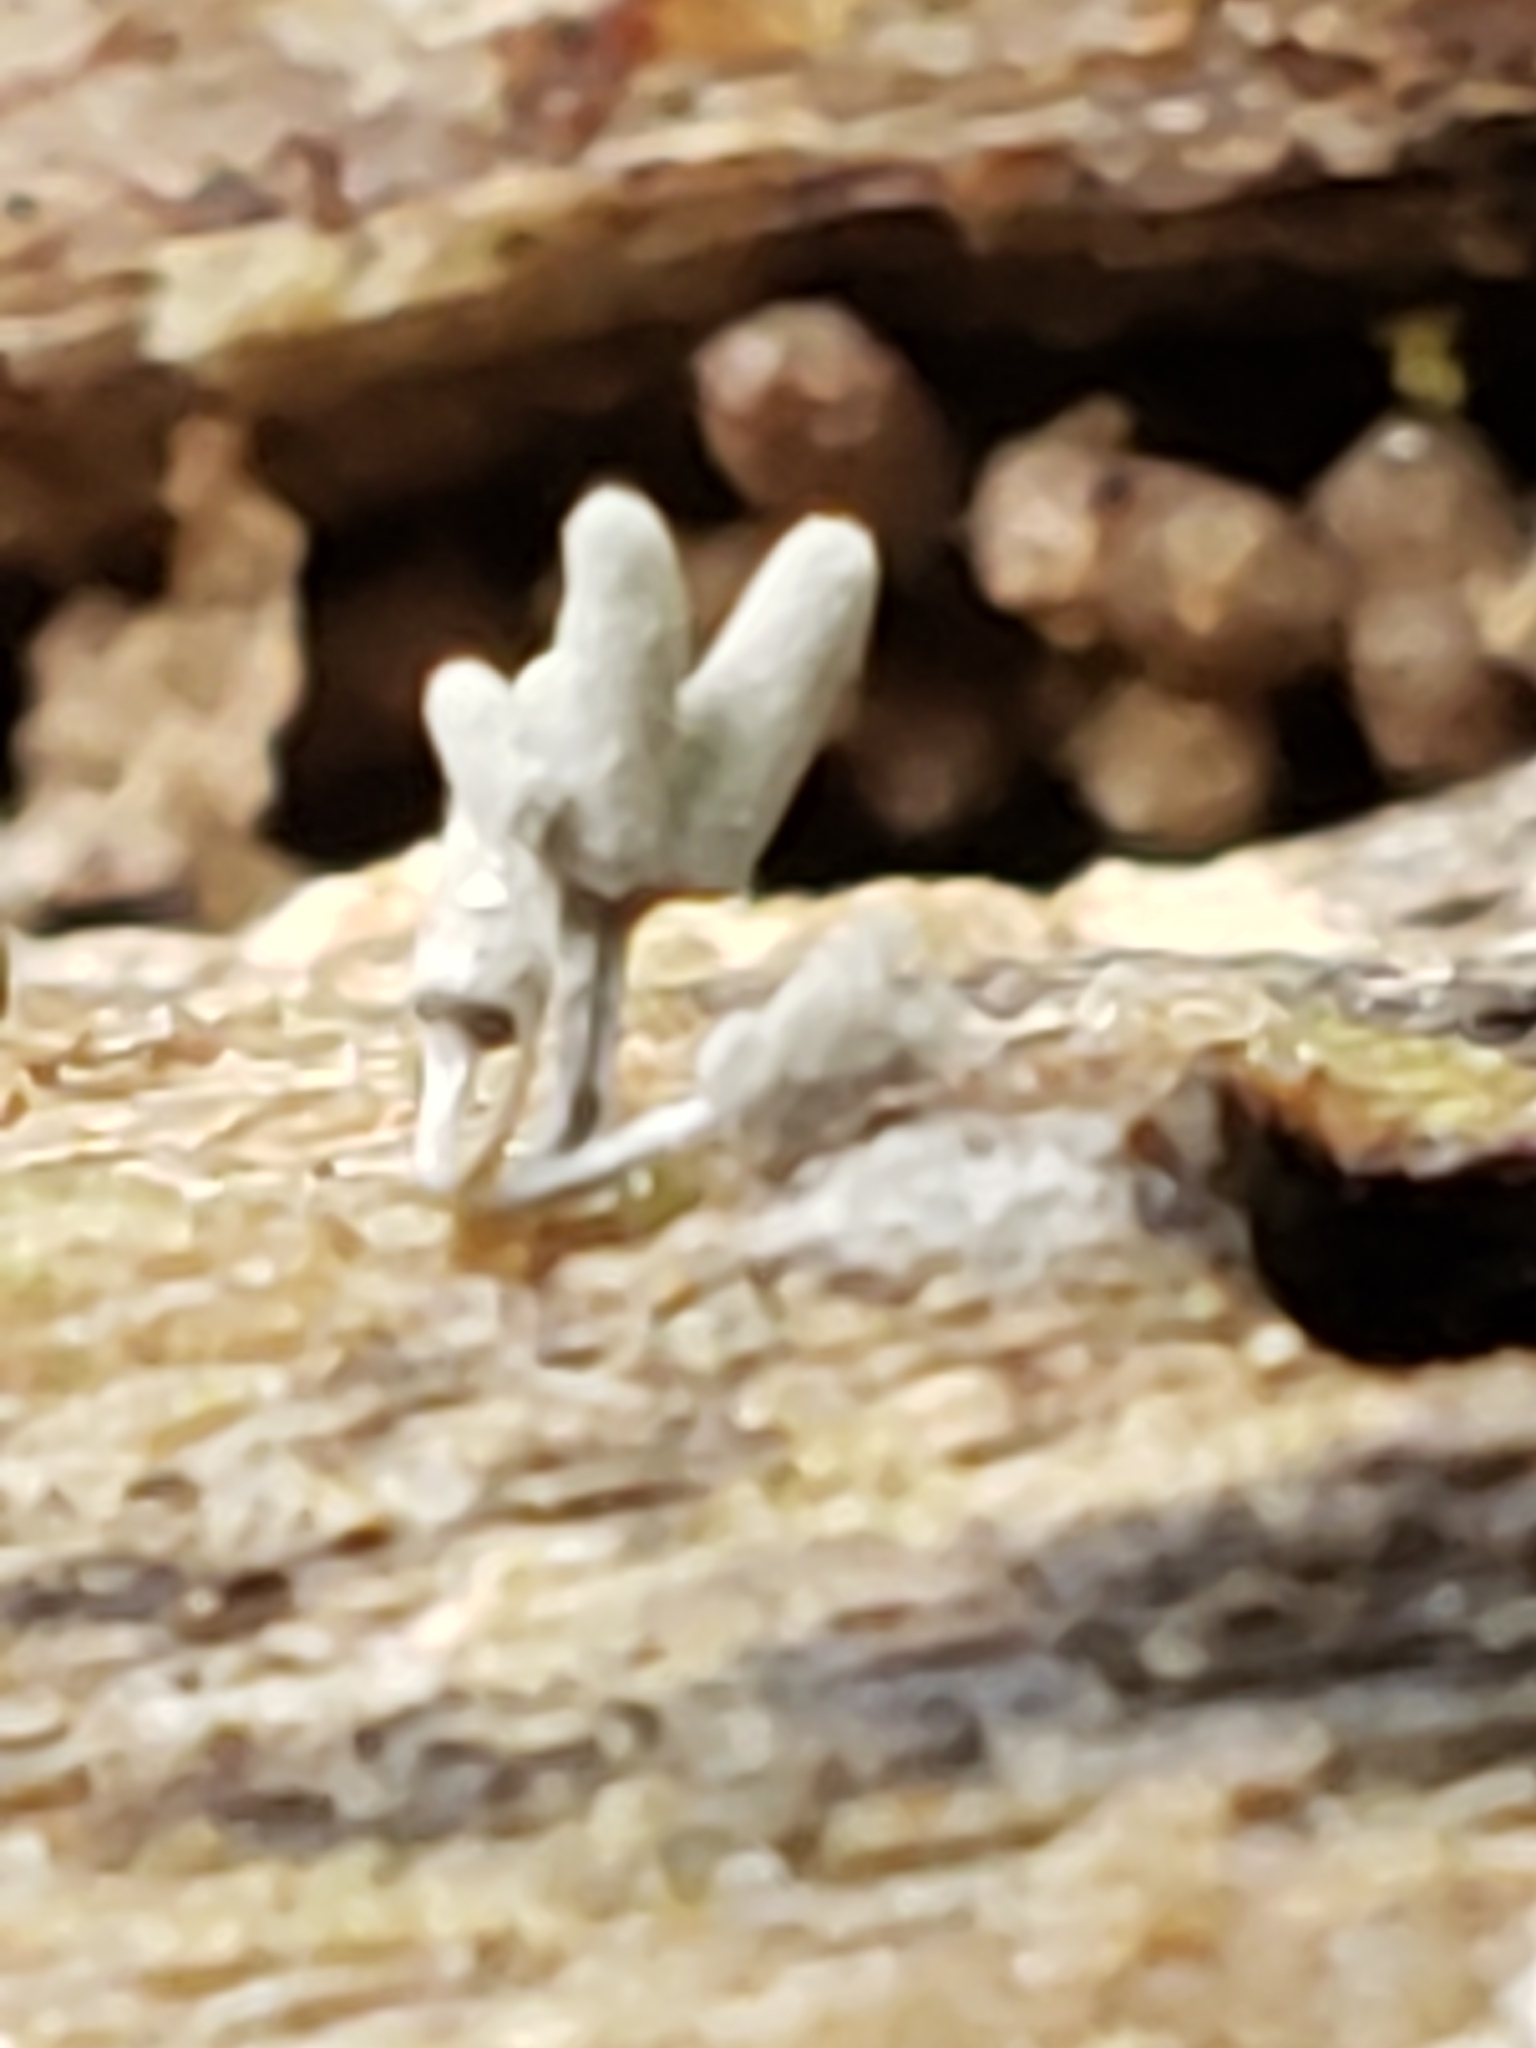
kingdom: Protozoa
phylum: Mycetozoa
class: Myxomycetes
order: Trichiales
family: Arcyriaceae
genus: Arcyria
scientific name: Arcyria cinerea
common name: White carnival candy slime mold
